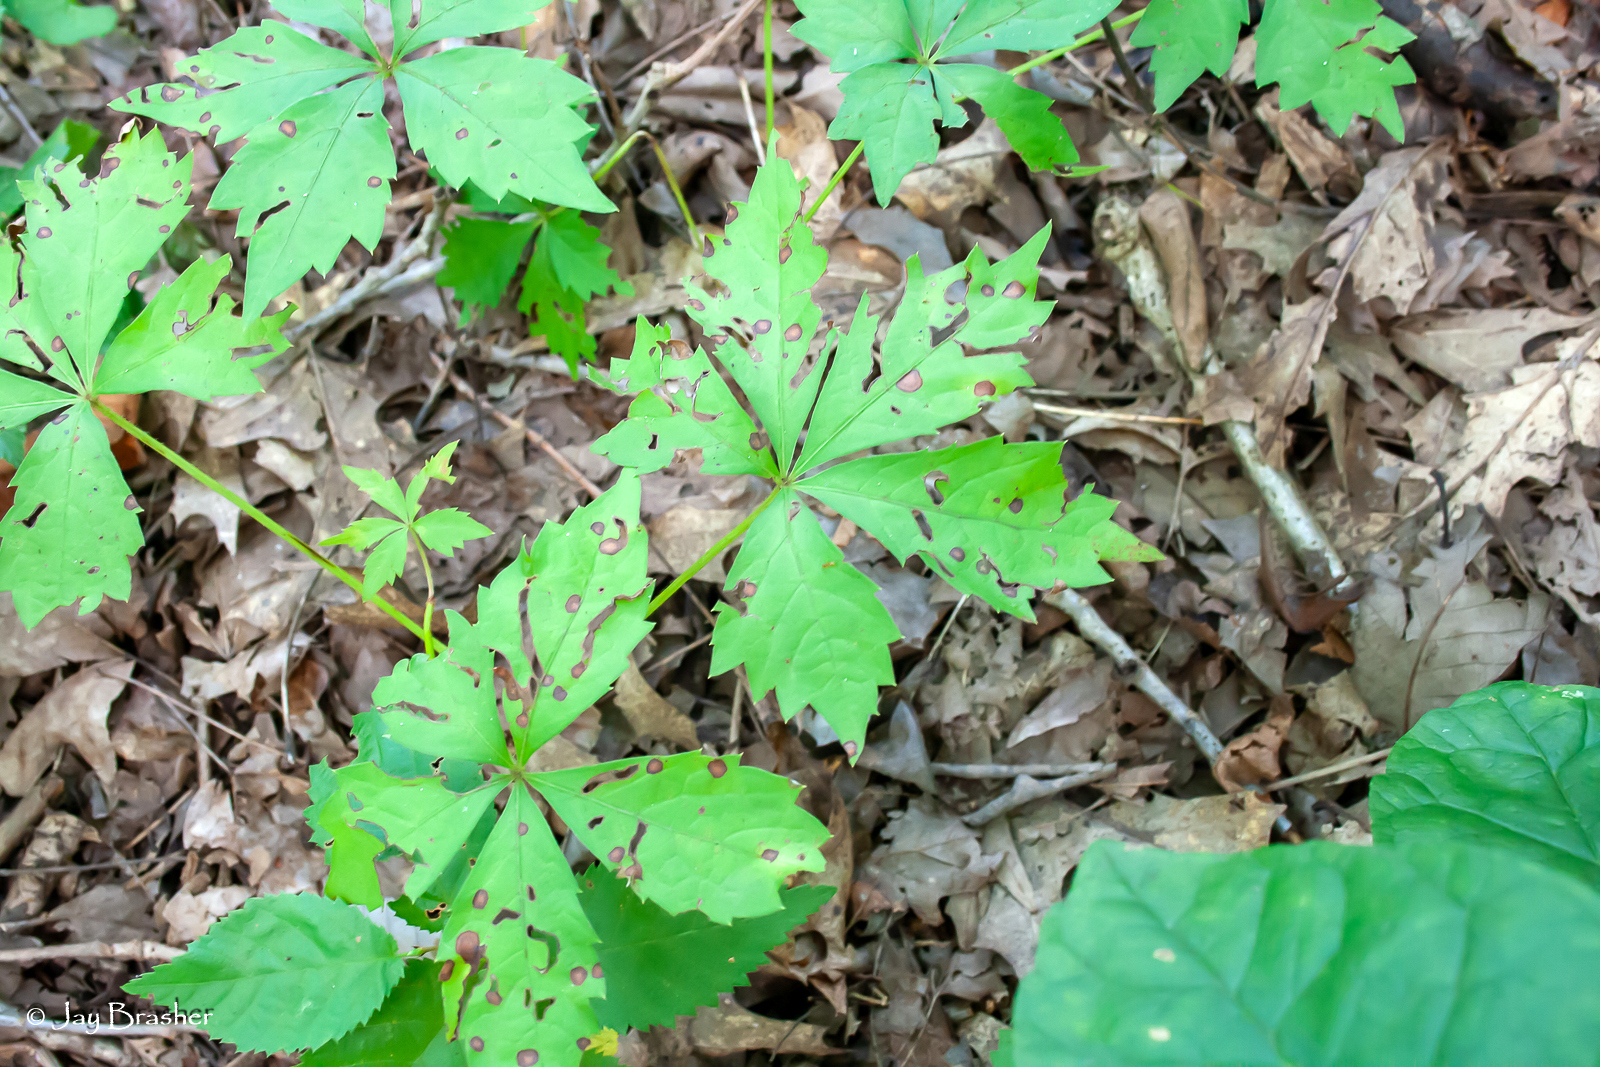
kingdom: Plantae
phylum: Tracheophyta
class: Magnoliopsida
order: Vitales
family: Vitaceae
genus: Parthenocissus
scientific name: Parthenocissus quinquefolia
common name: Virginia-creeper
